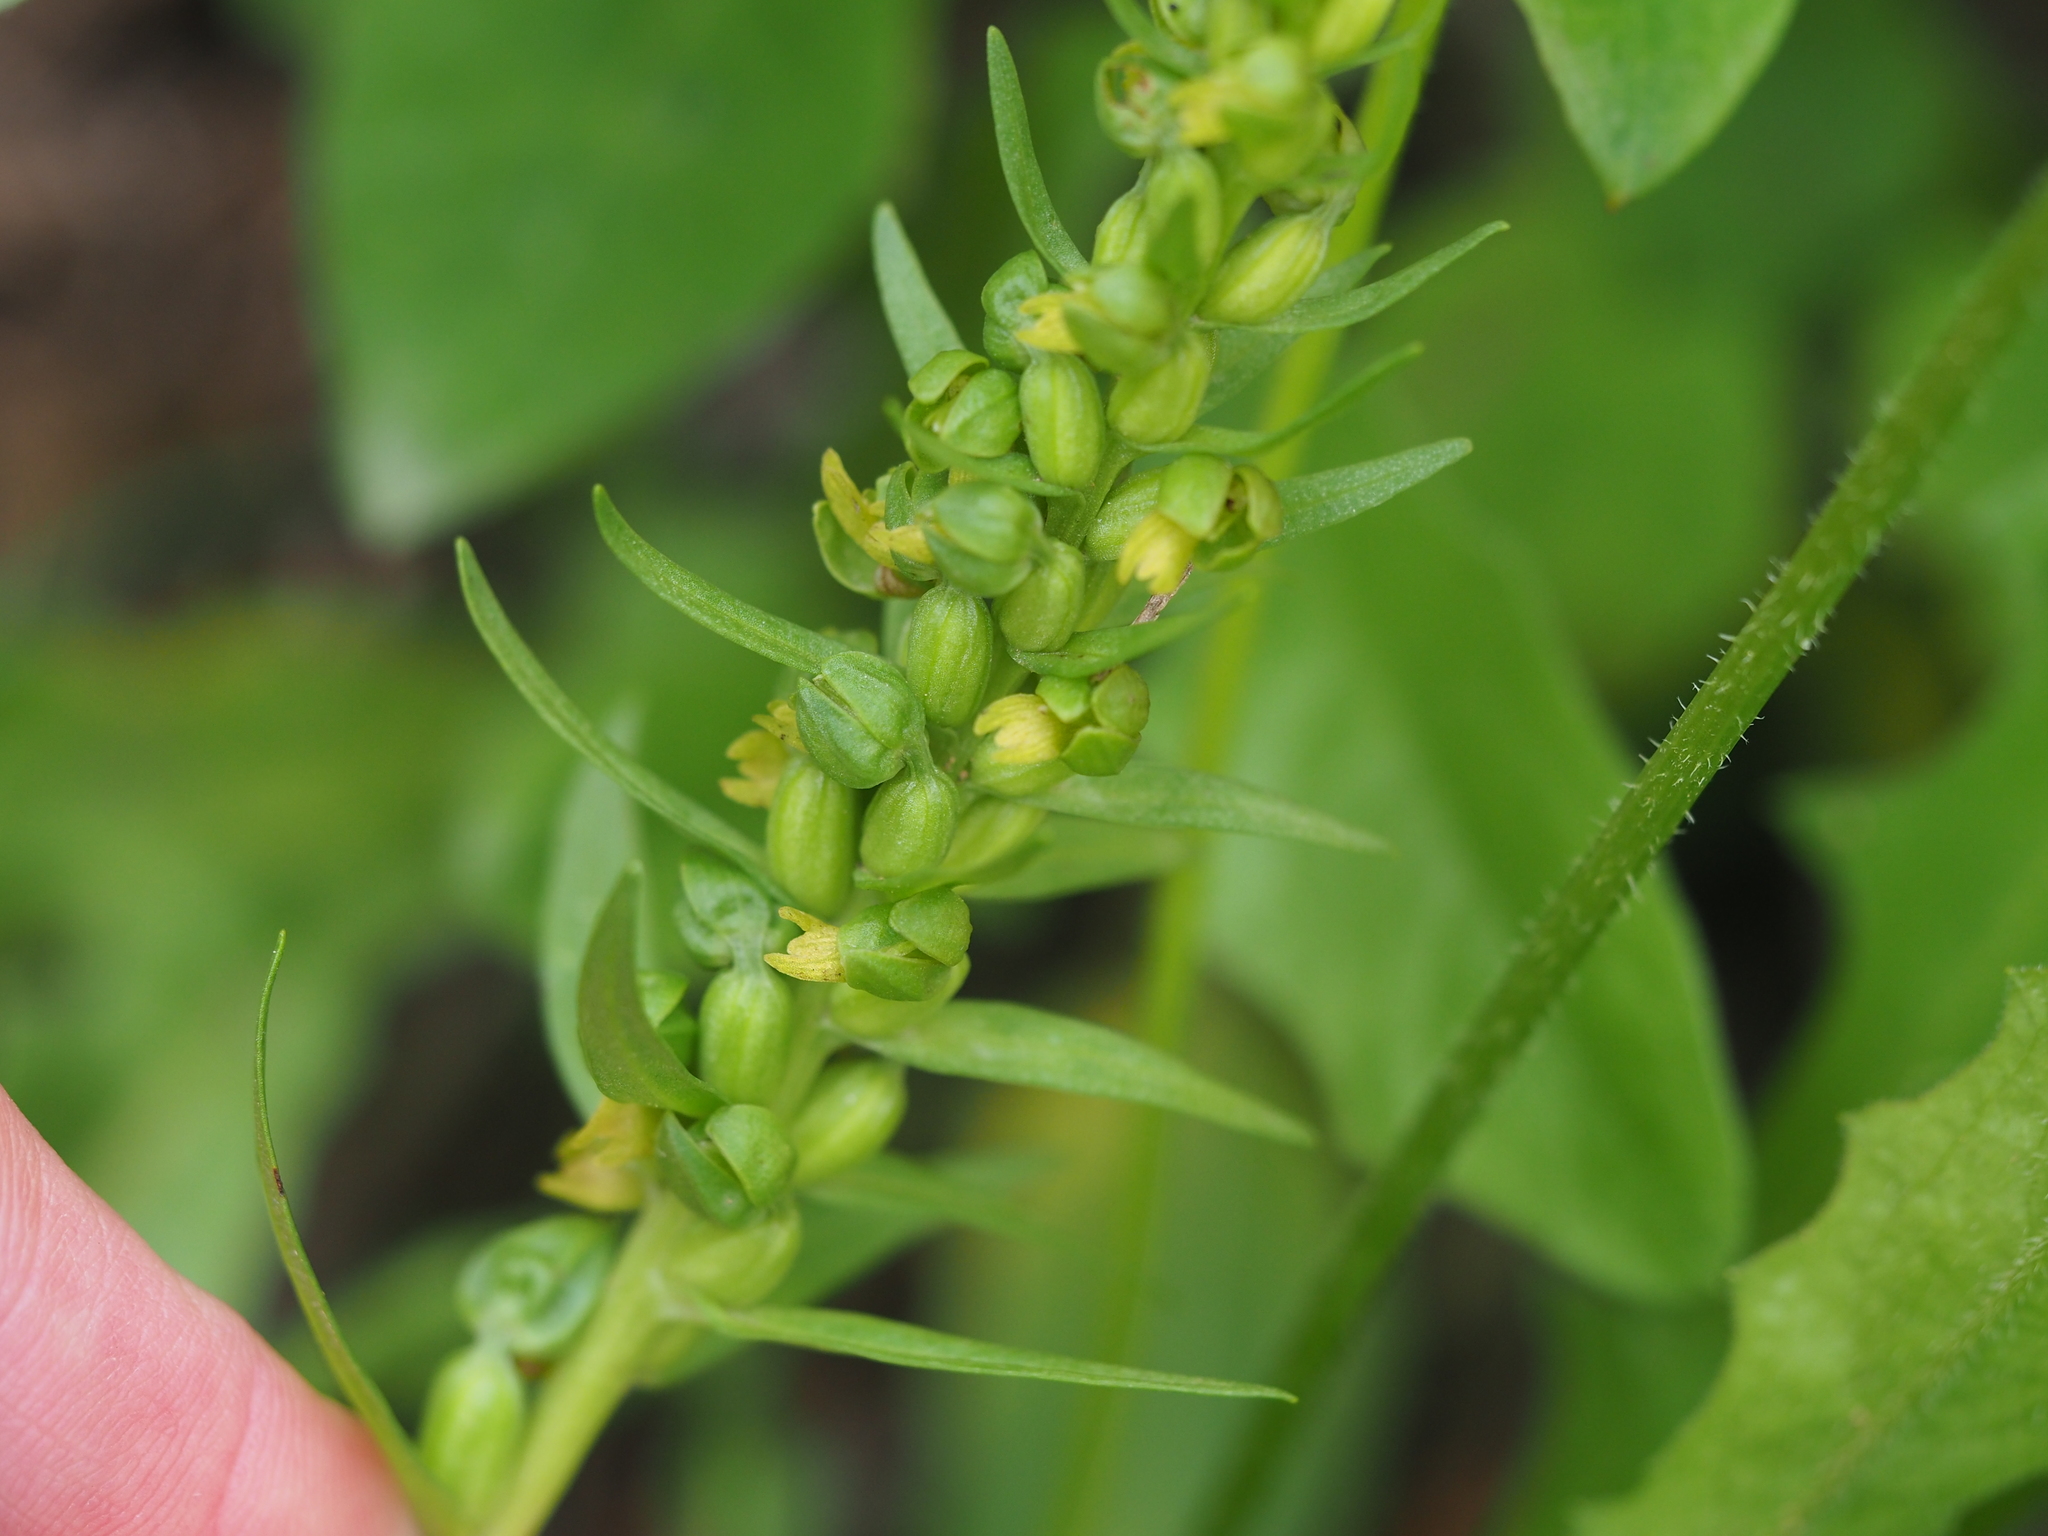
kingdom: Plantae
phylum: Tracheophyta
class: Liliopsida
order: Asparagales
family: Orchidaceae
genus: Dactylorhiza
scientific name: Dactylorhiza viridis
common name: Longbract frog orchid
